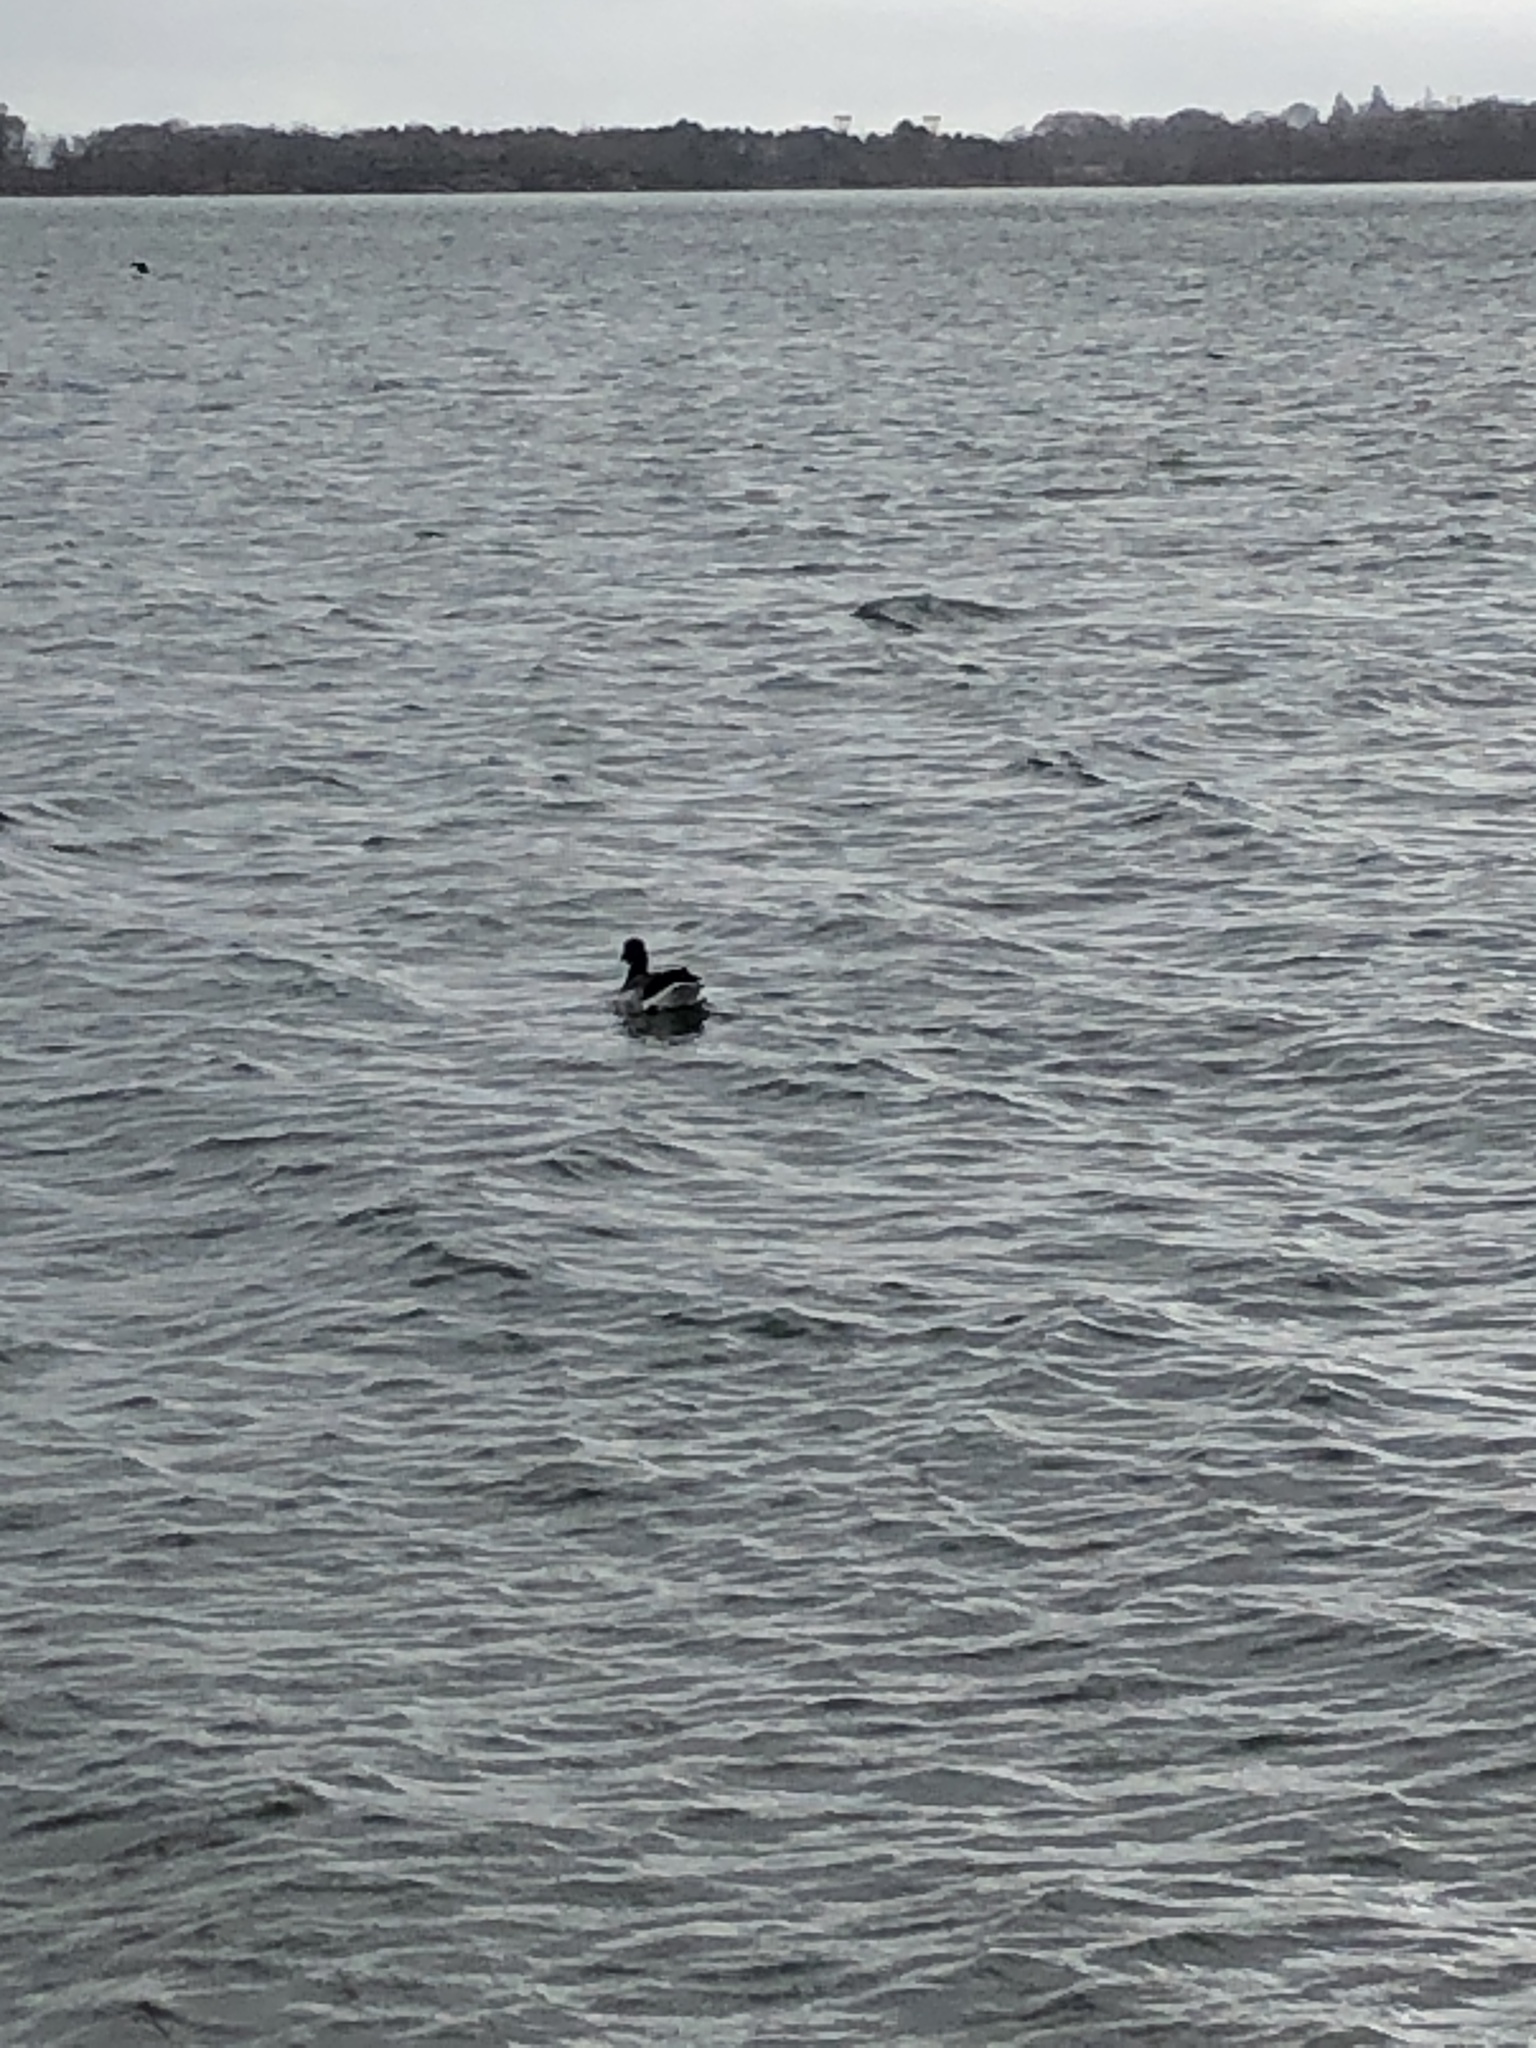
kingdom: Animalia
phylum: Chordata
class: Aves
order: Anseriformes
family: Anatidae
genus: Branta
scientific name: Branta bernicla
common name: Brant goose
